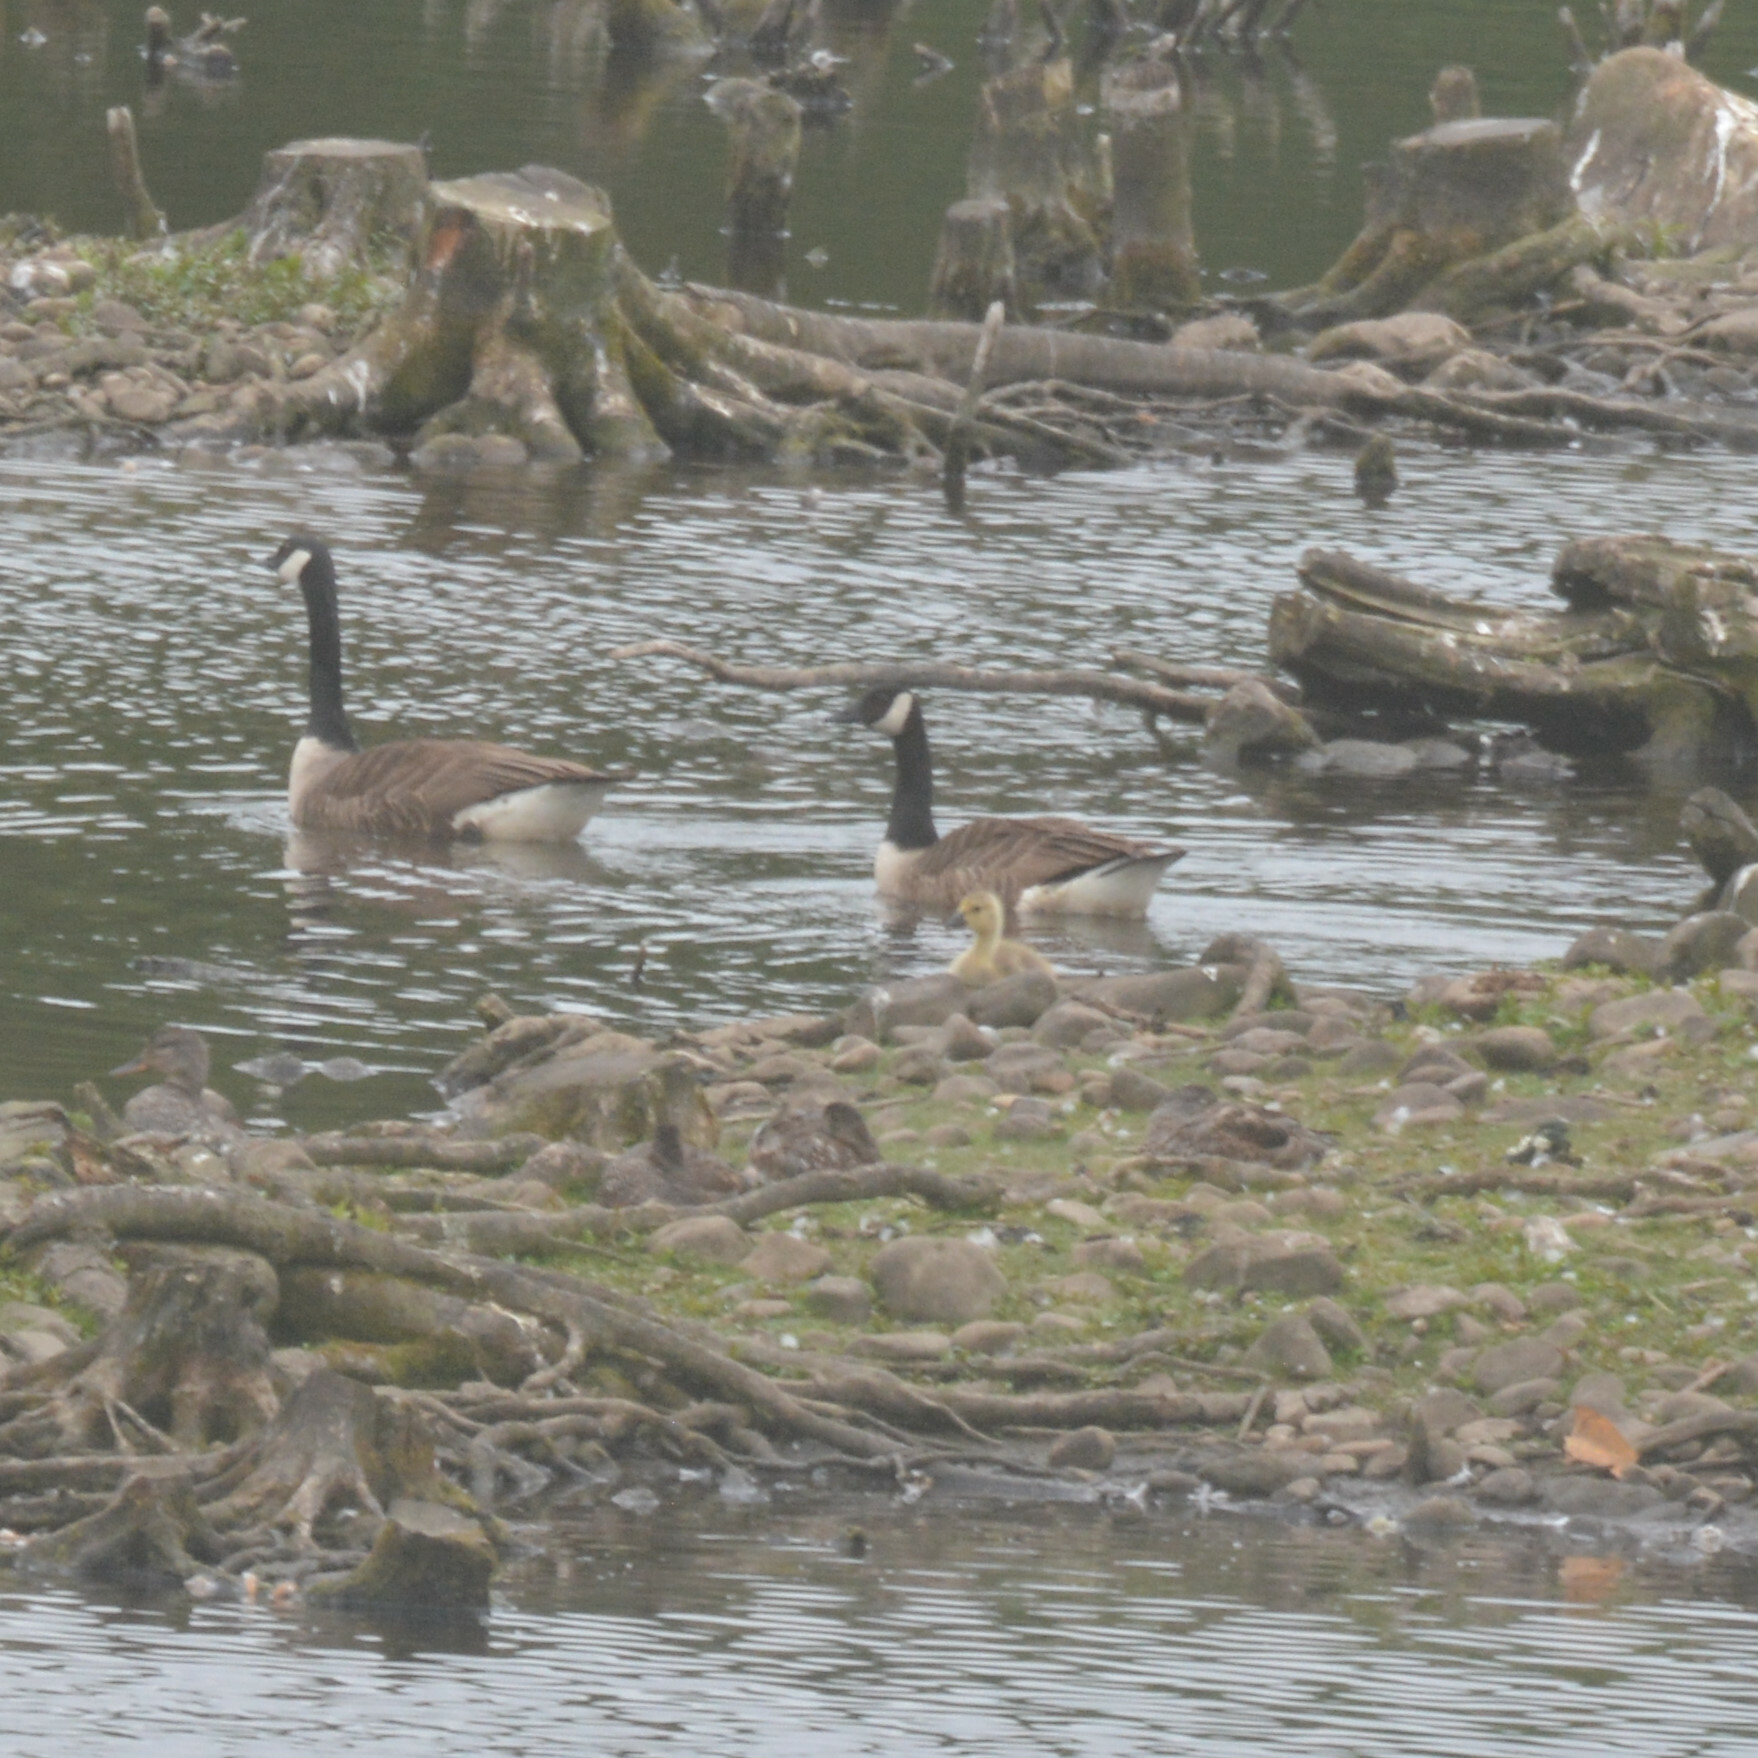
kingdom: Animalia
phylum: Chordata
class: Aves
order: Anseriformes
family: Anatidae
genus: Branta
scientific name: Branta canadensis
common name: Canada goose
